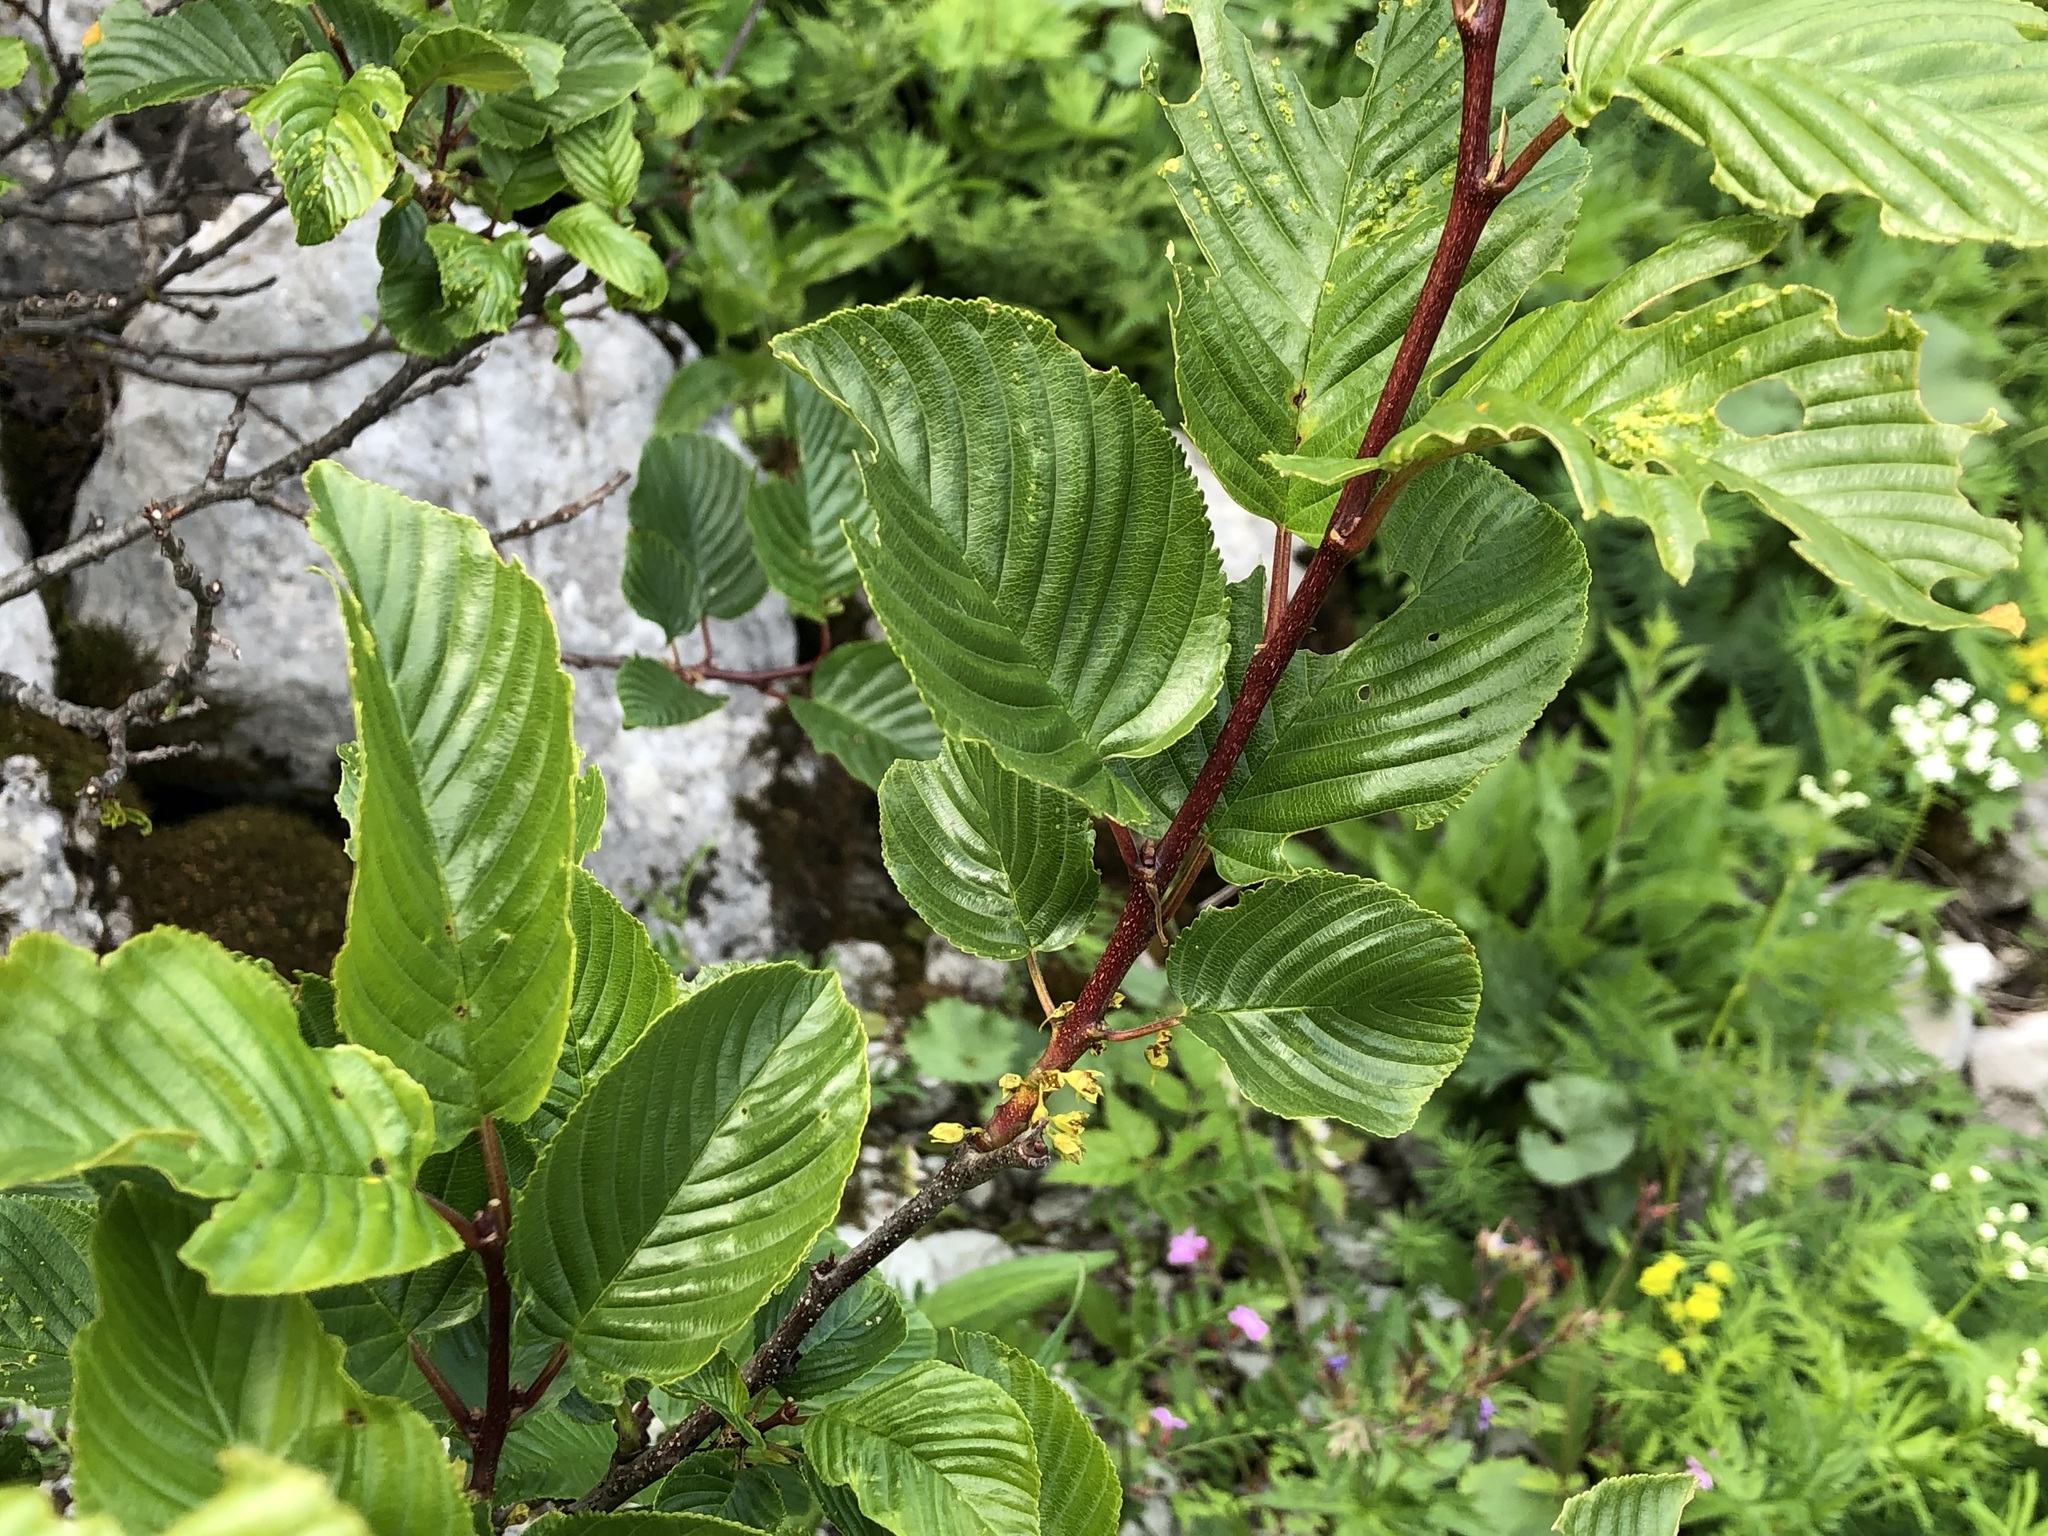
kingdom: Plantae
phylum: Tracheophyta
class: Magnoliopsida
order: Rosales
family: Rhamnaceae
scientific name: Rhamnaceae
